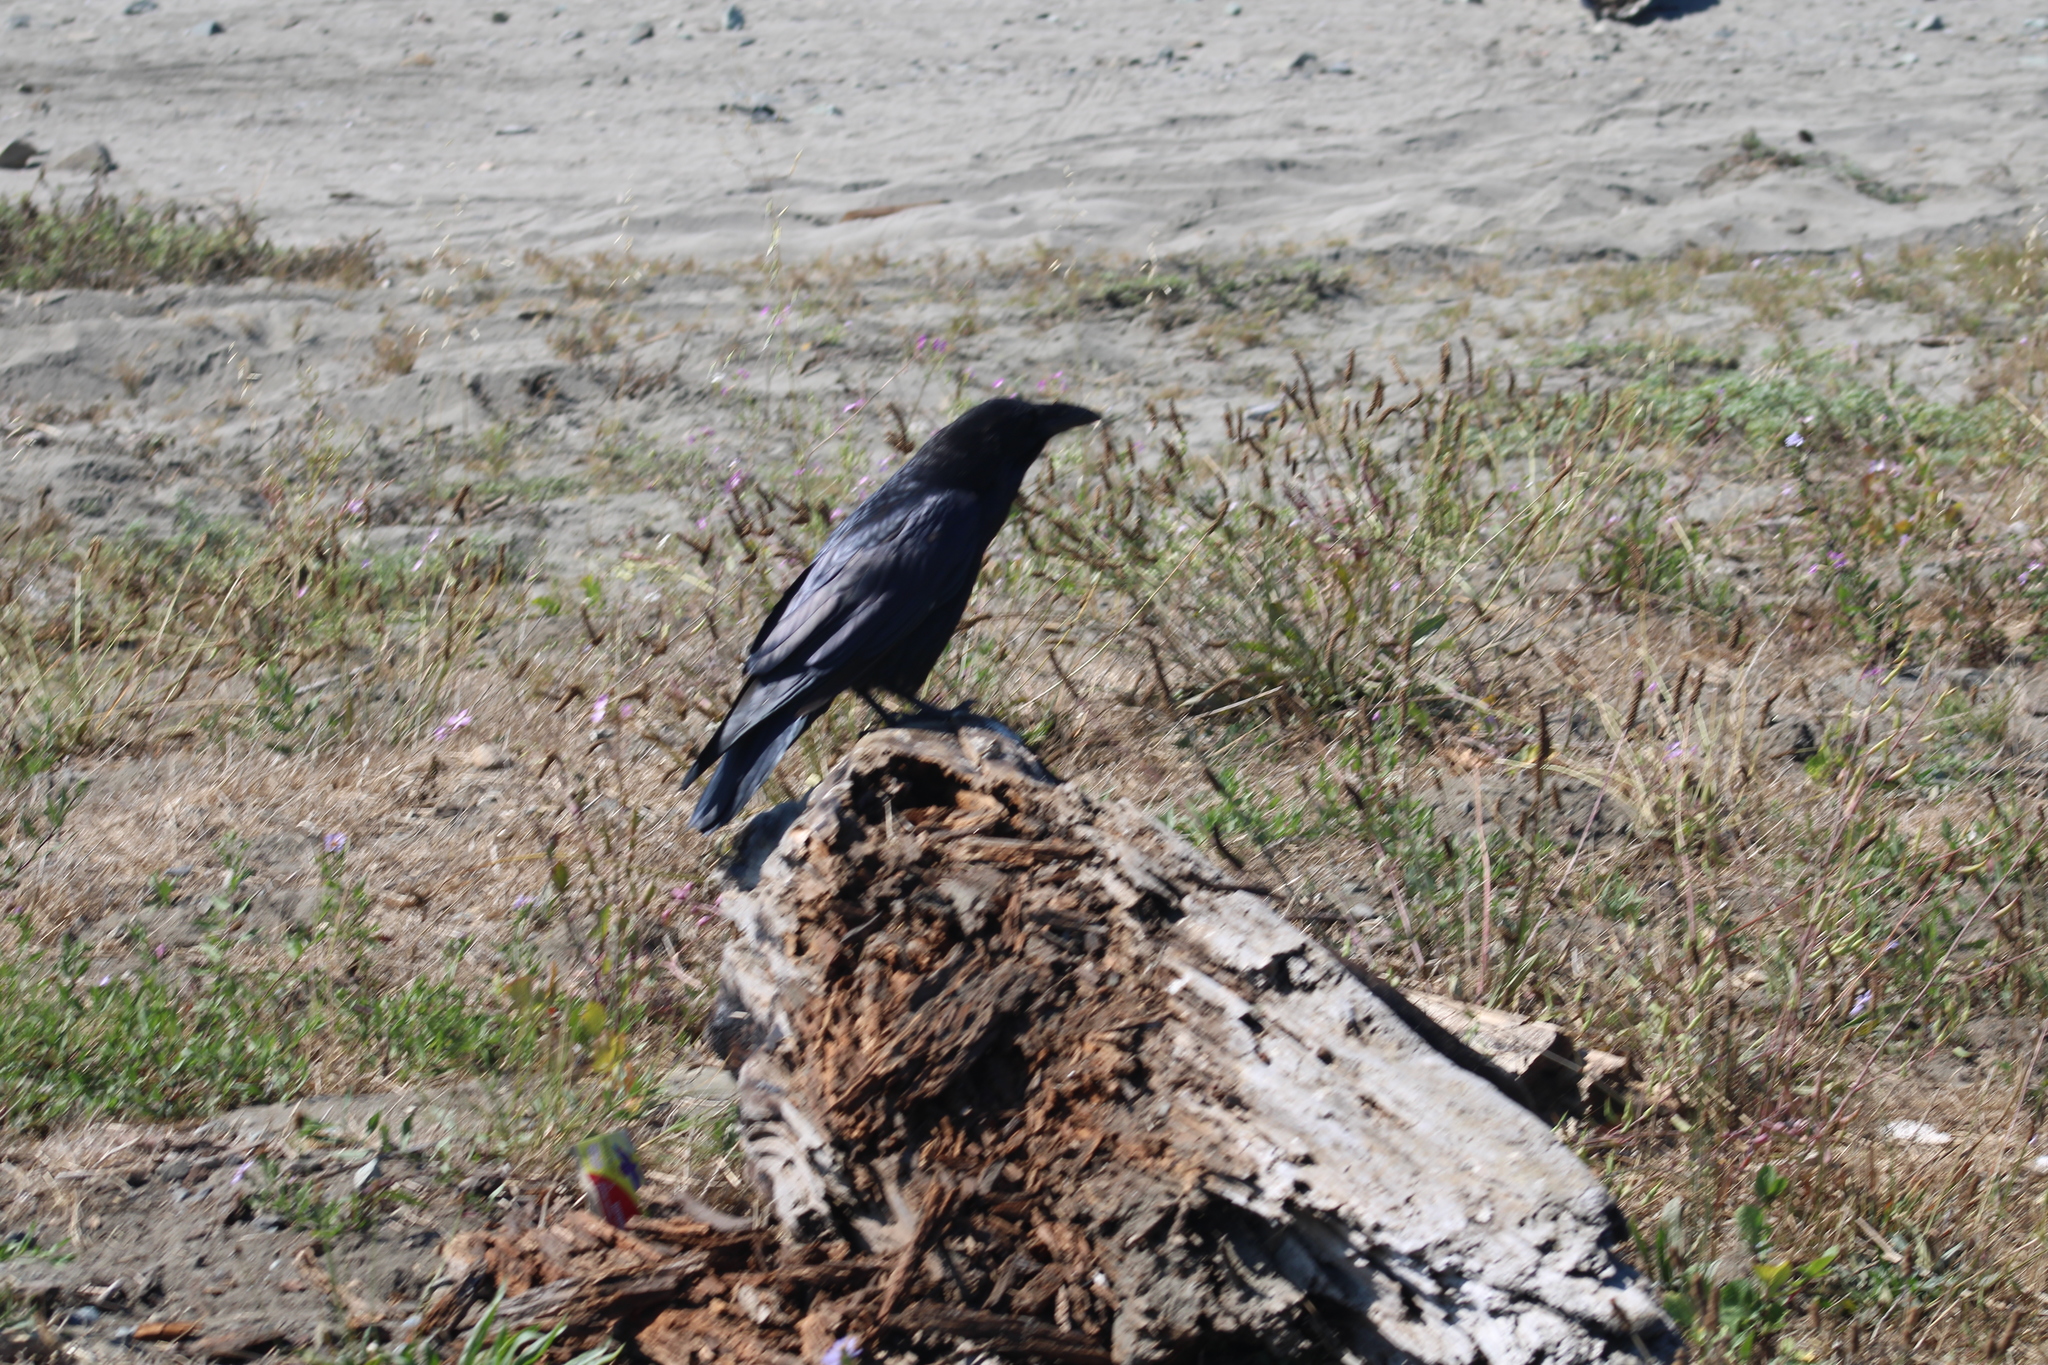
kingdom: Animalia
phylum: Chordata
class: Aves
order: Passeriformes
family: Corvidae
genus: Corvus
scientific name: Corvus corax
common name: Common raven
